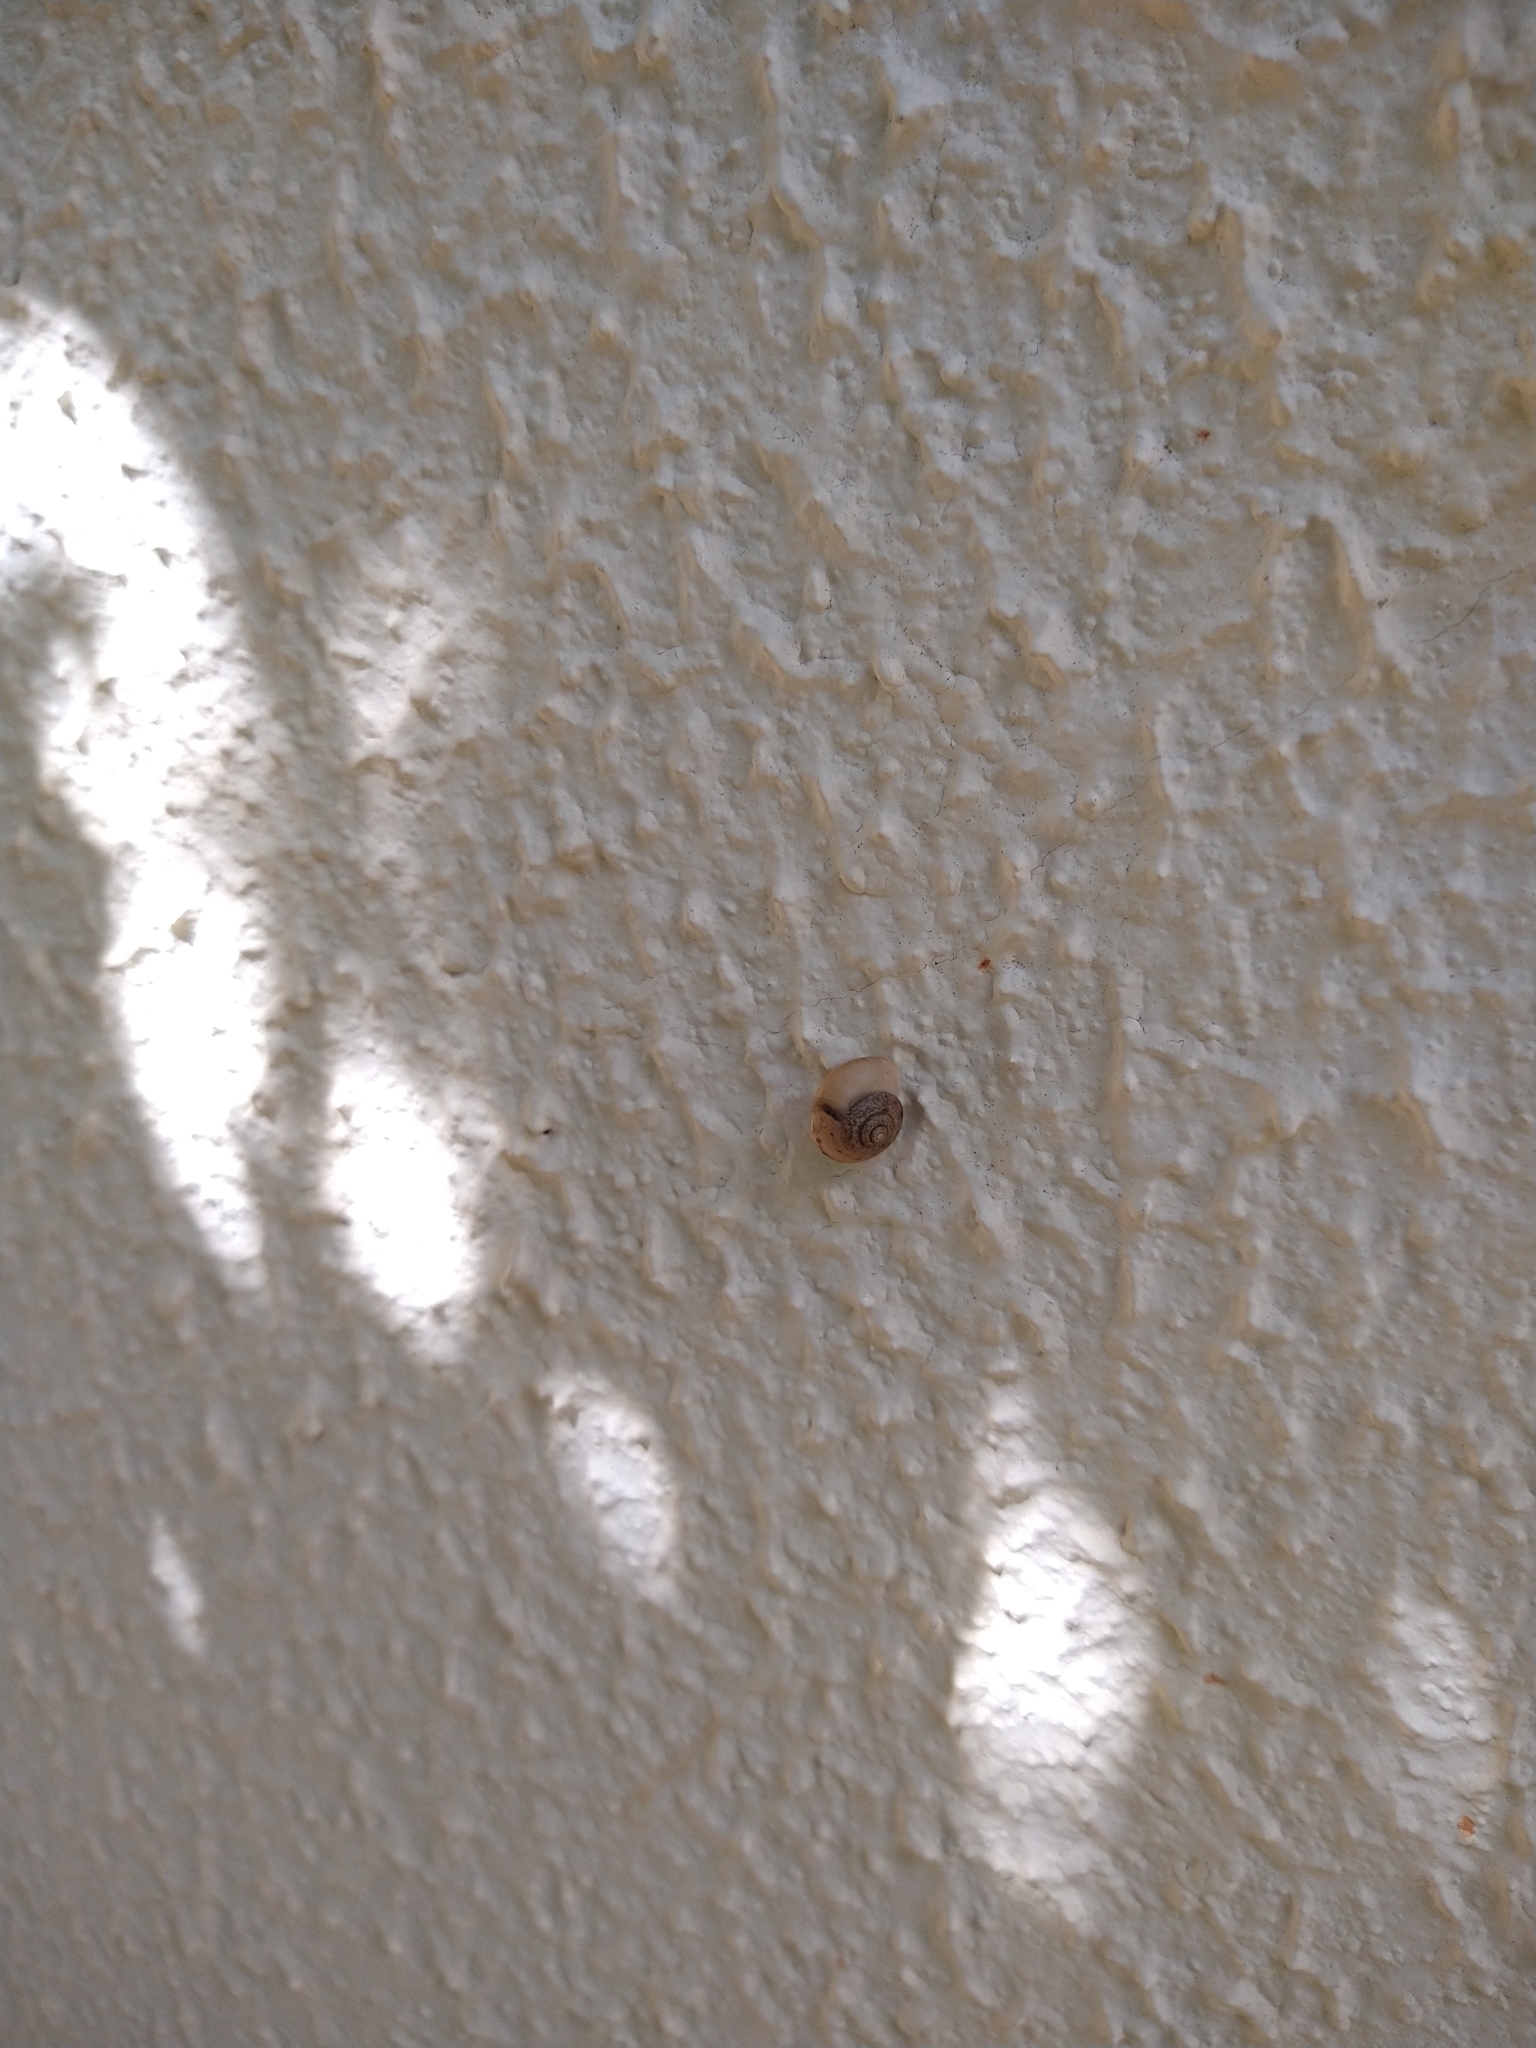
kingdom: Animalia
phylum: Mollusca
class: Gastropoda
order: Stylommatophora
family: Camaenidae
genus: Bradybaena
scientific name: Bradybaena similaris
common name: Asian trampsnail
